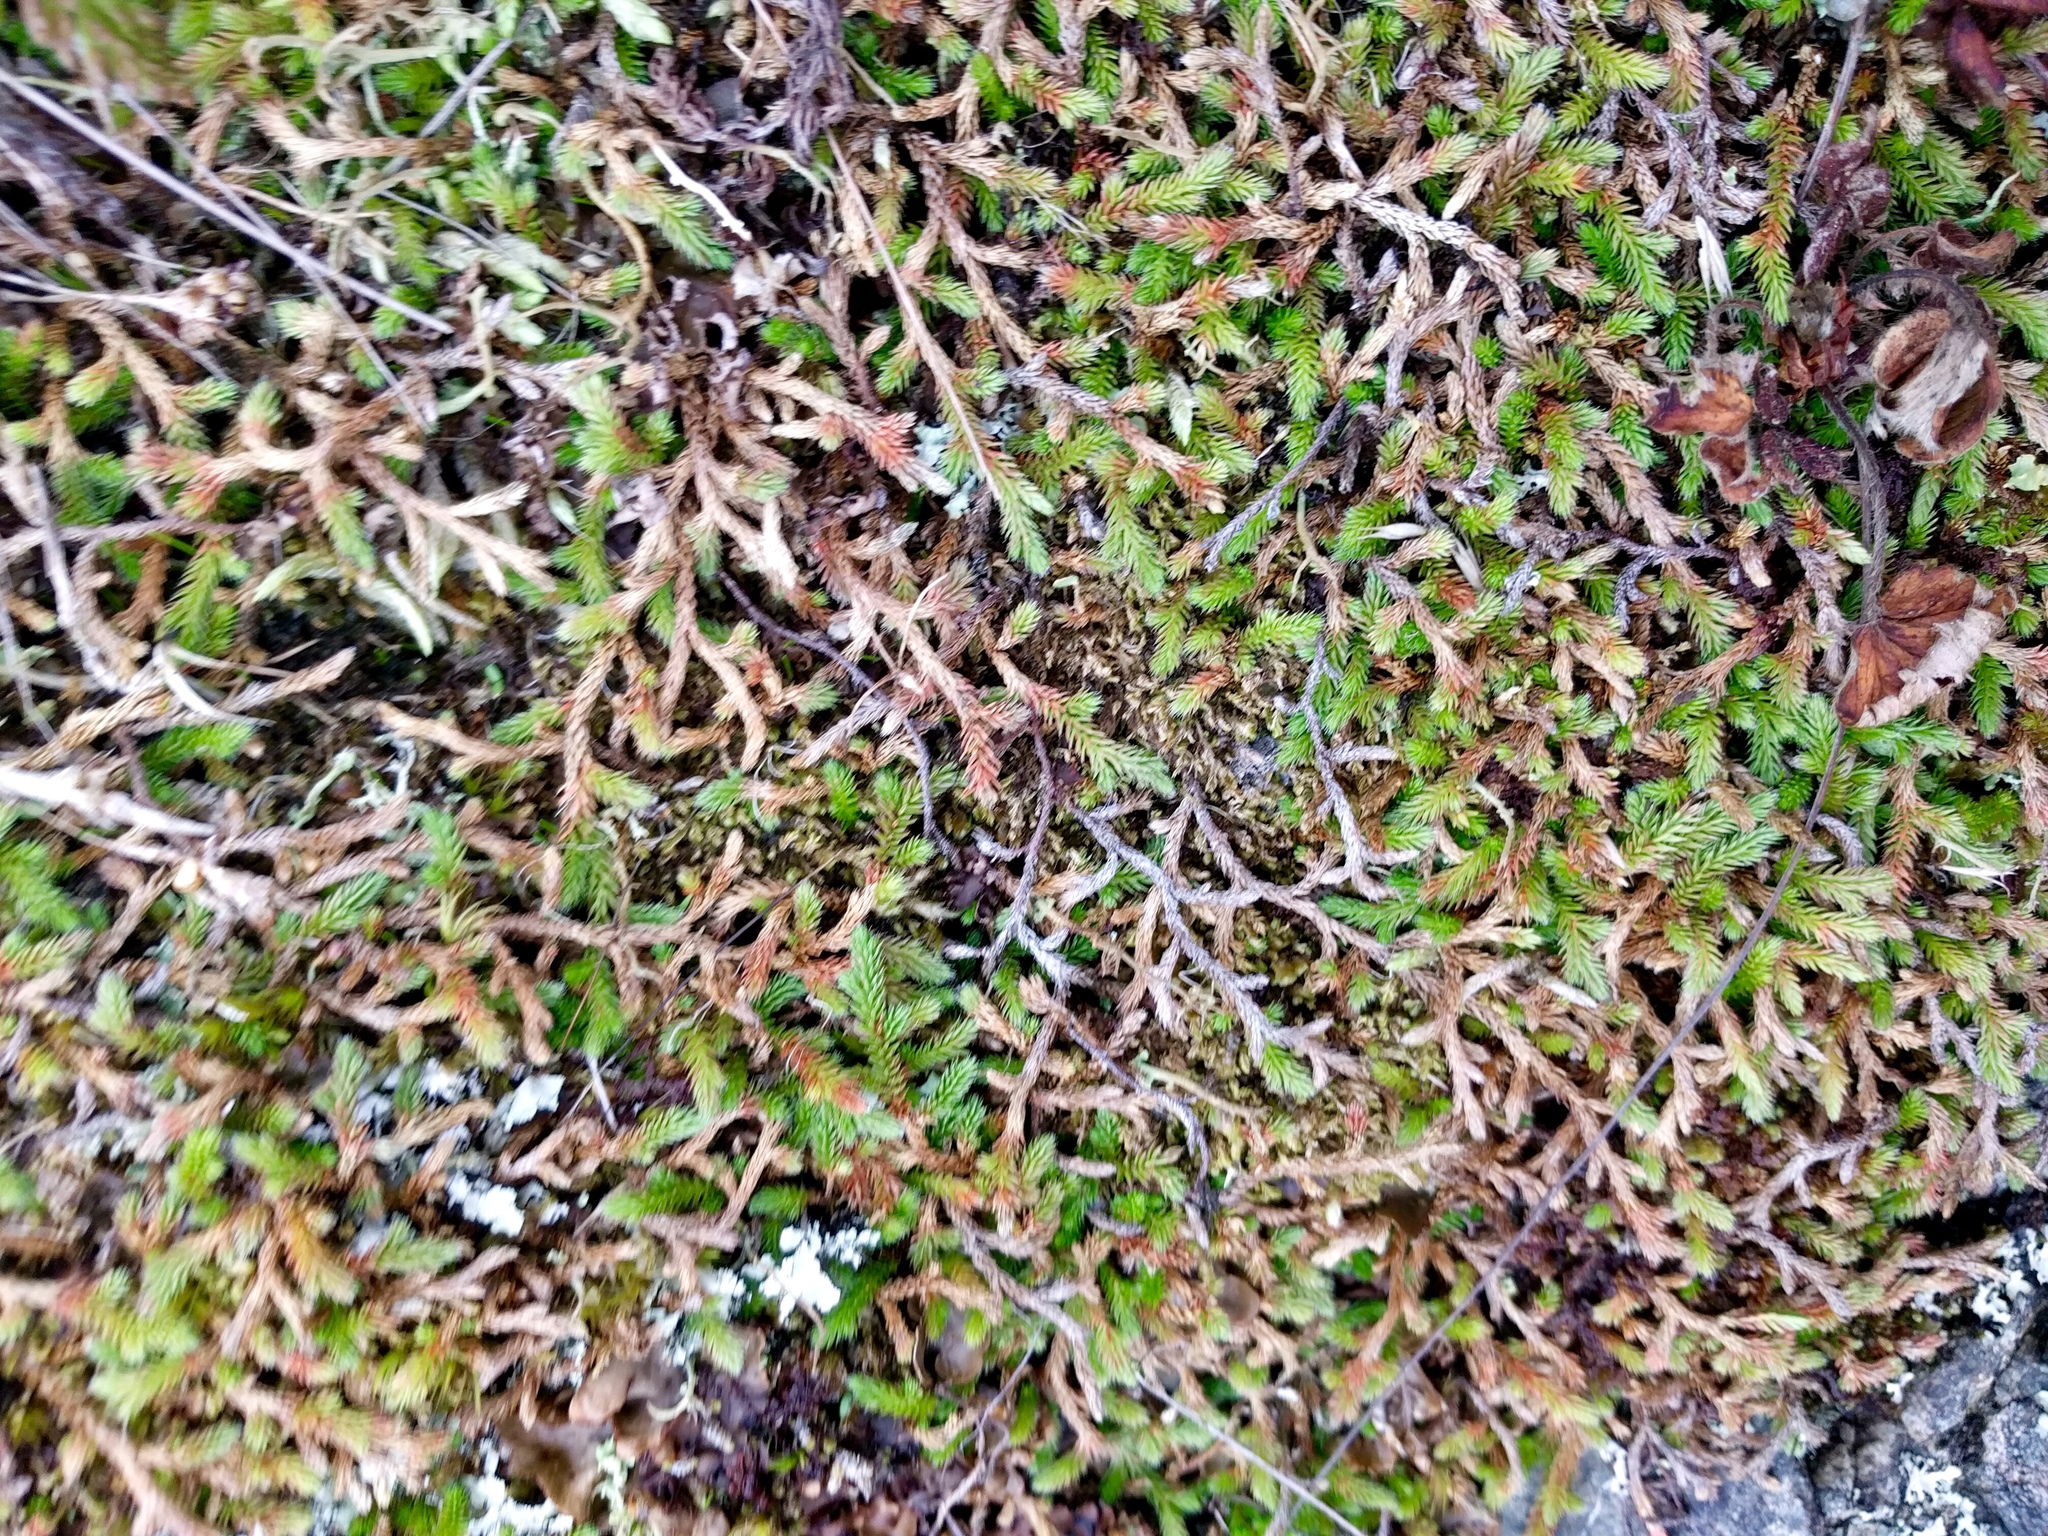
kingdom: Plantae
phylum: Tracheophyta
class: Lycopodiopsida
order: Selaginellales
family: Selaginellaceae
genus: Selaginella
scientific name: Selaginella wallacei
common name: Wallace's selaginella
